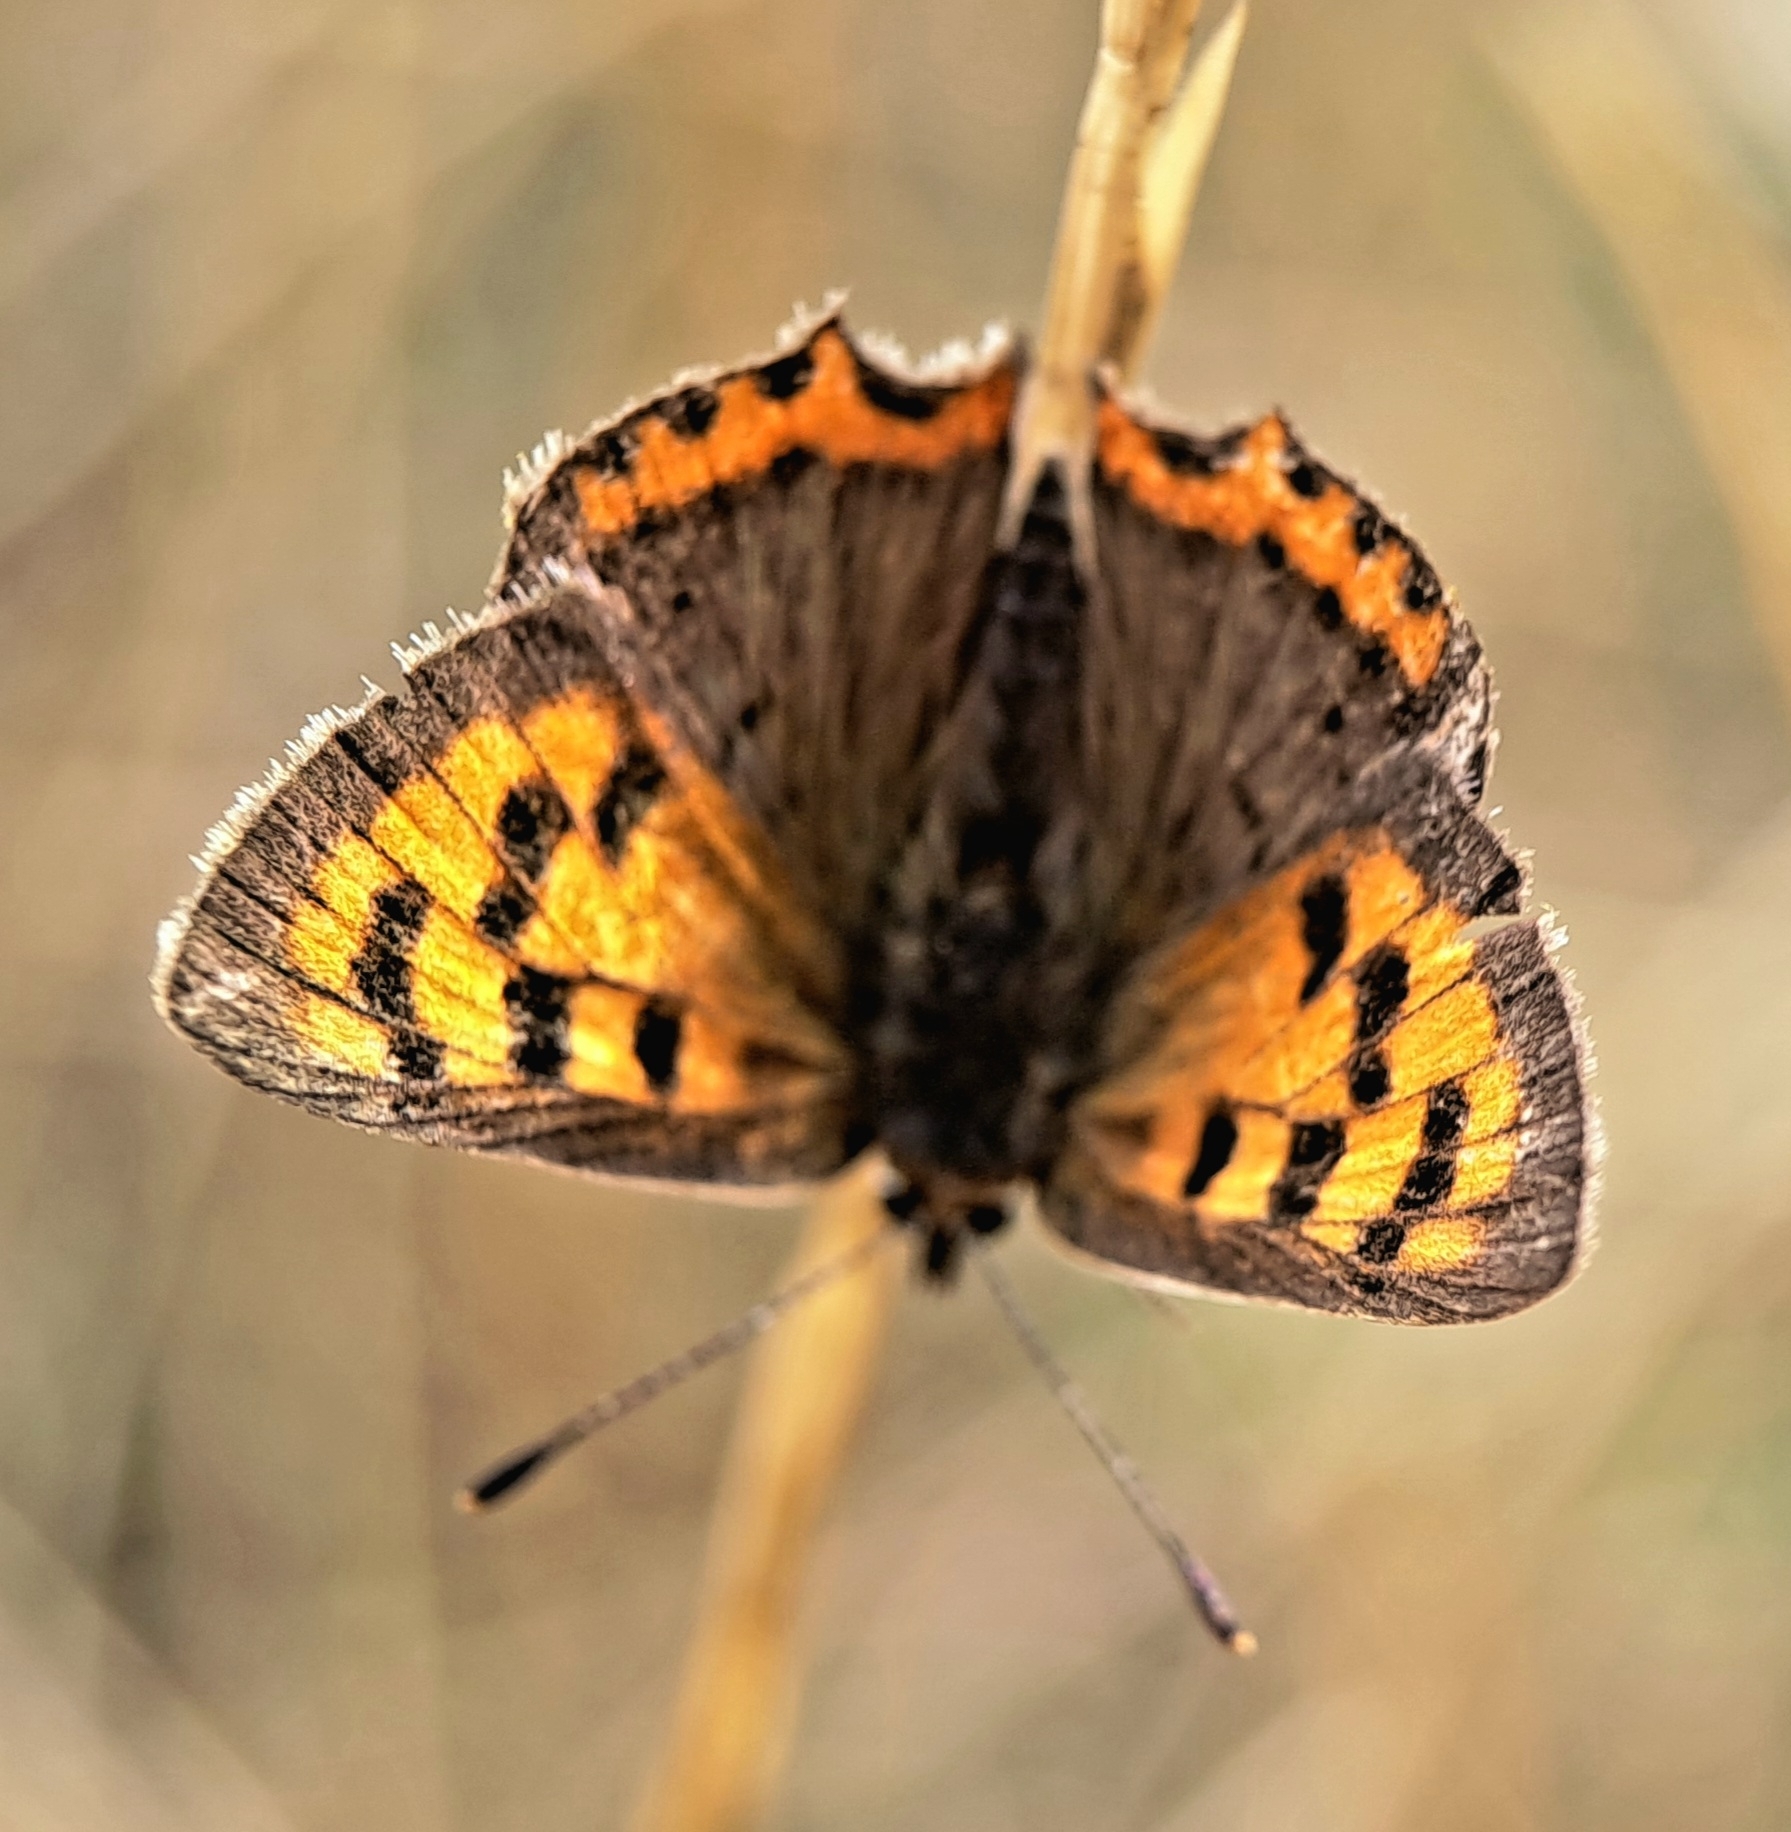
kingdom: Animalia
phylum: Arthropoda
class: Insecta
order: Lepidoptera
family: Lycaenidae
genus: Lycaena
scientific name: Lycaena phlaeas
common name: Small copper
